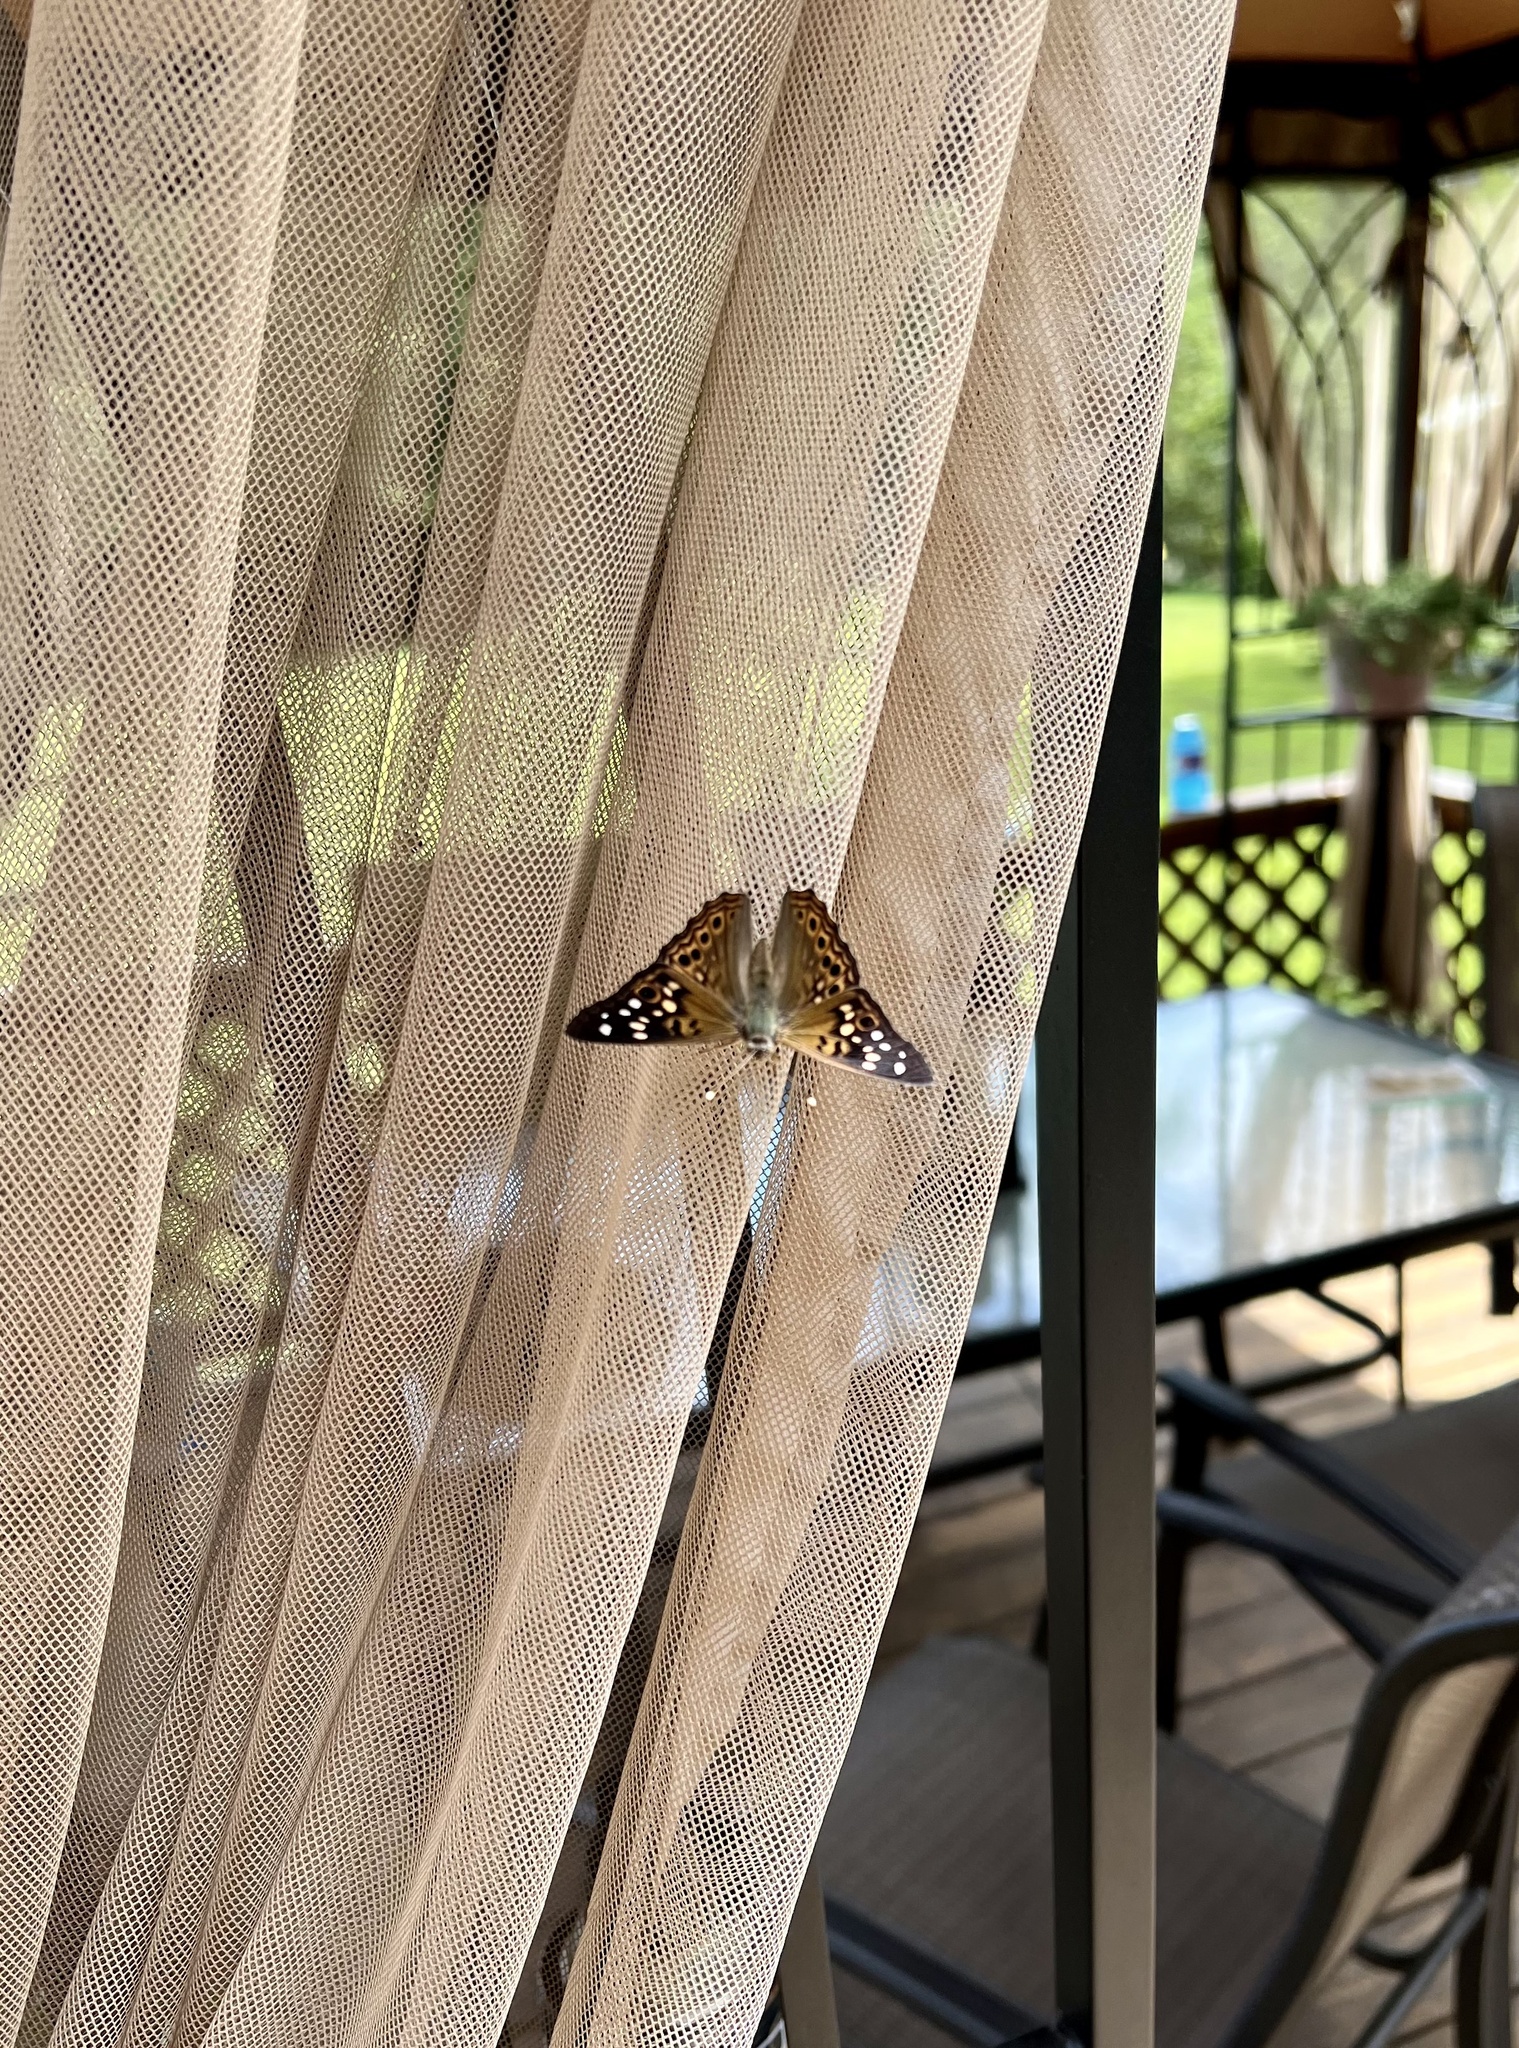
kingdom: Animalia
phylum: Arthropoda
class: Insecta
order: Lepidoptera
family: Nymphalidae
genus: Asterocampa
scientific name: Asterocampa celtis
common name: Hackberry emperor
